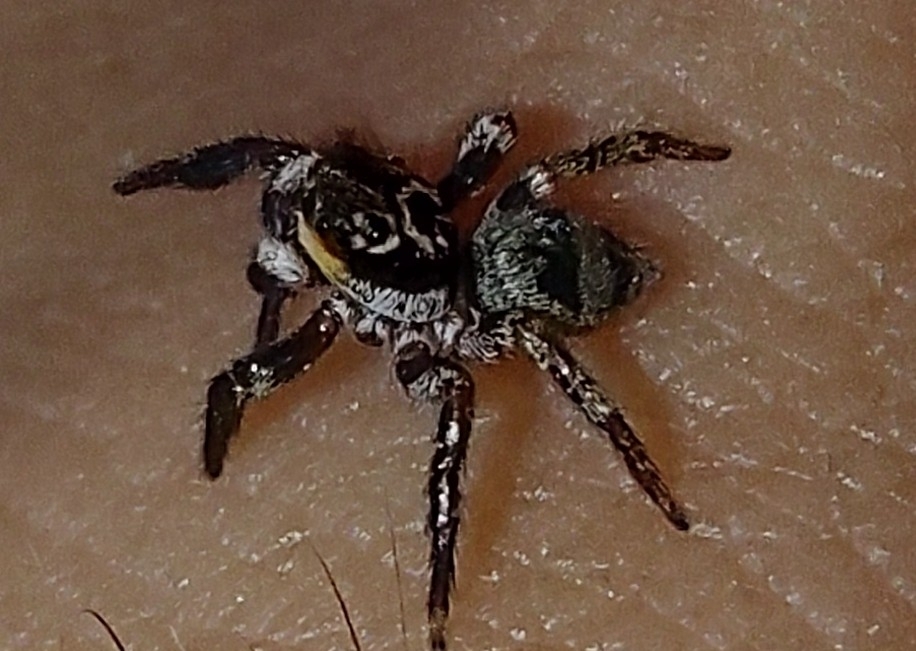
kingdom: Animalia
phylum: Arthropoda
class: Arachnida
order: Araneae
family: Salticidae
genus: Corythalia
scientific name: Corythalia conferta
